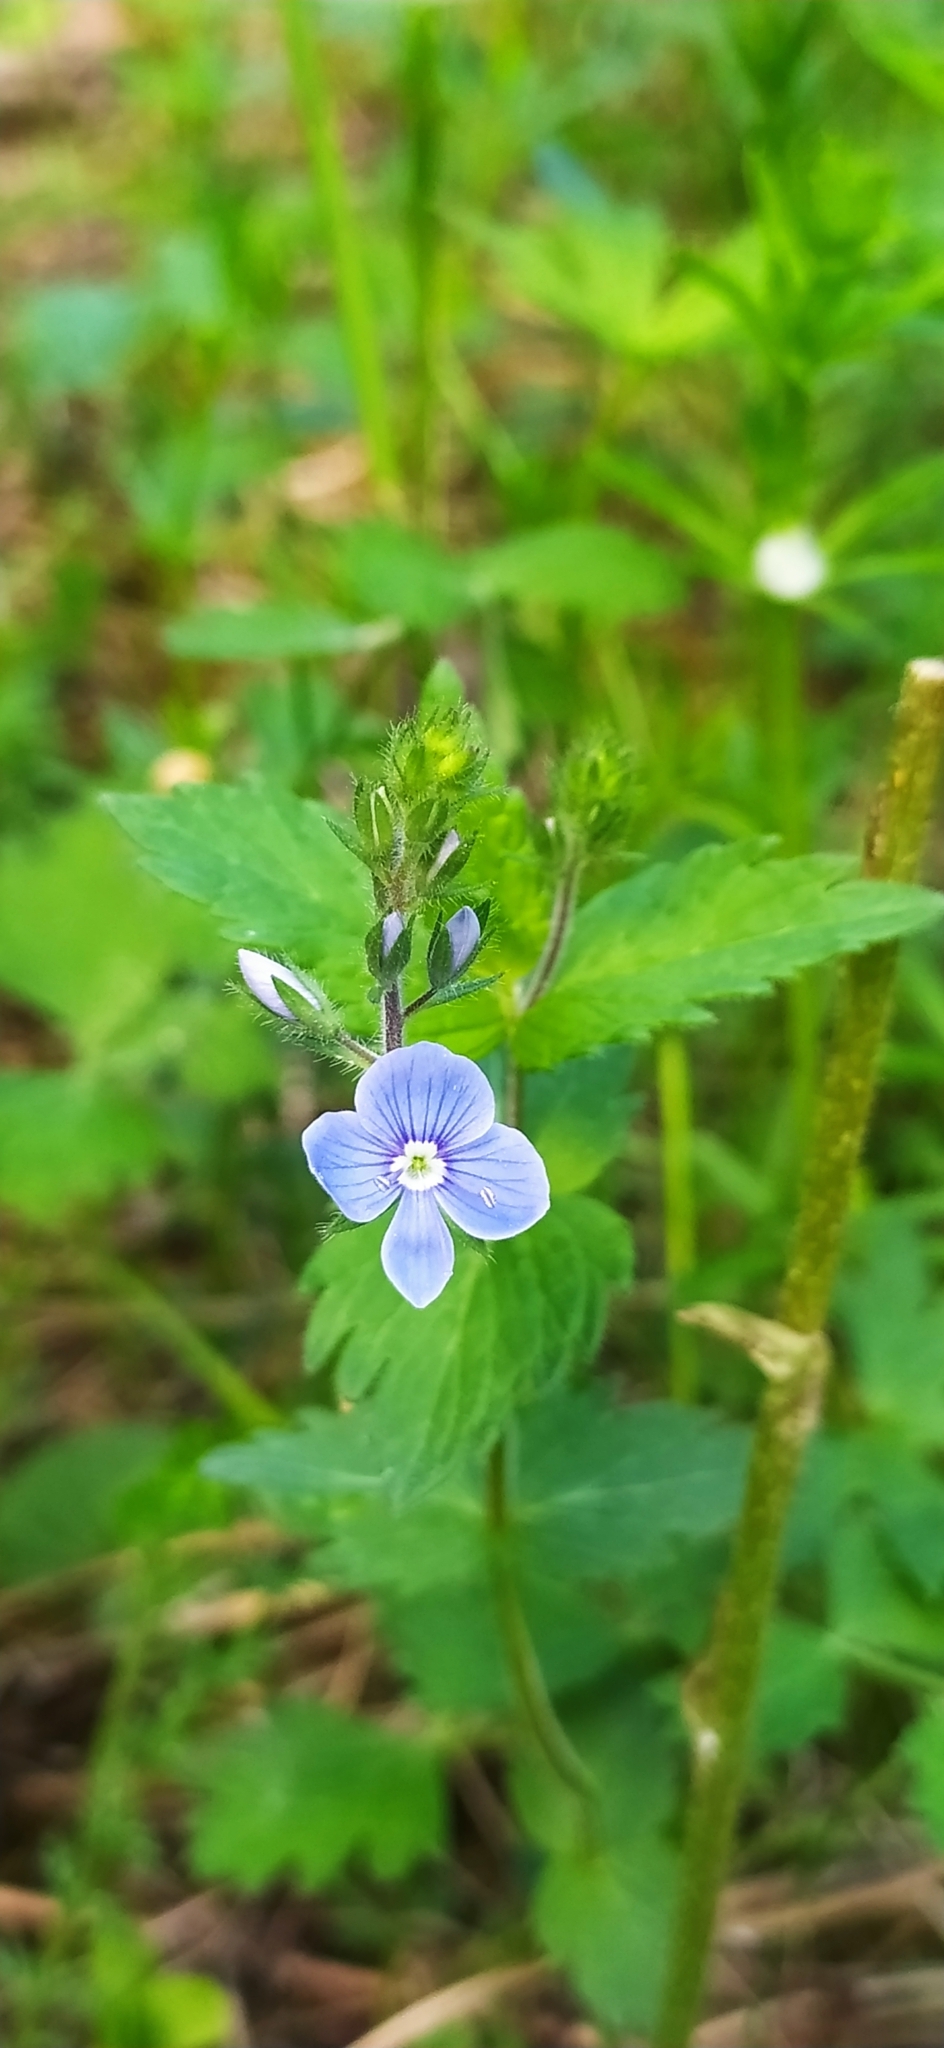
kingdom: Plantae
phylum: Tracheophyta
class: Magnoliopsida
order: Lamiales
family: Plantaginaceae
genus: Veronica
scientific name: Veronica chamaedrys
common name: Germander speedwell
